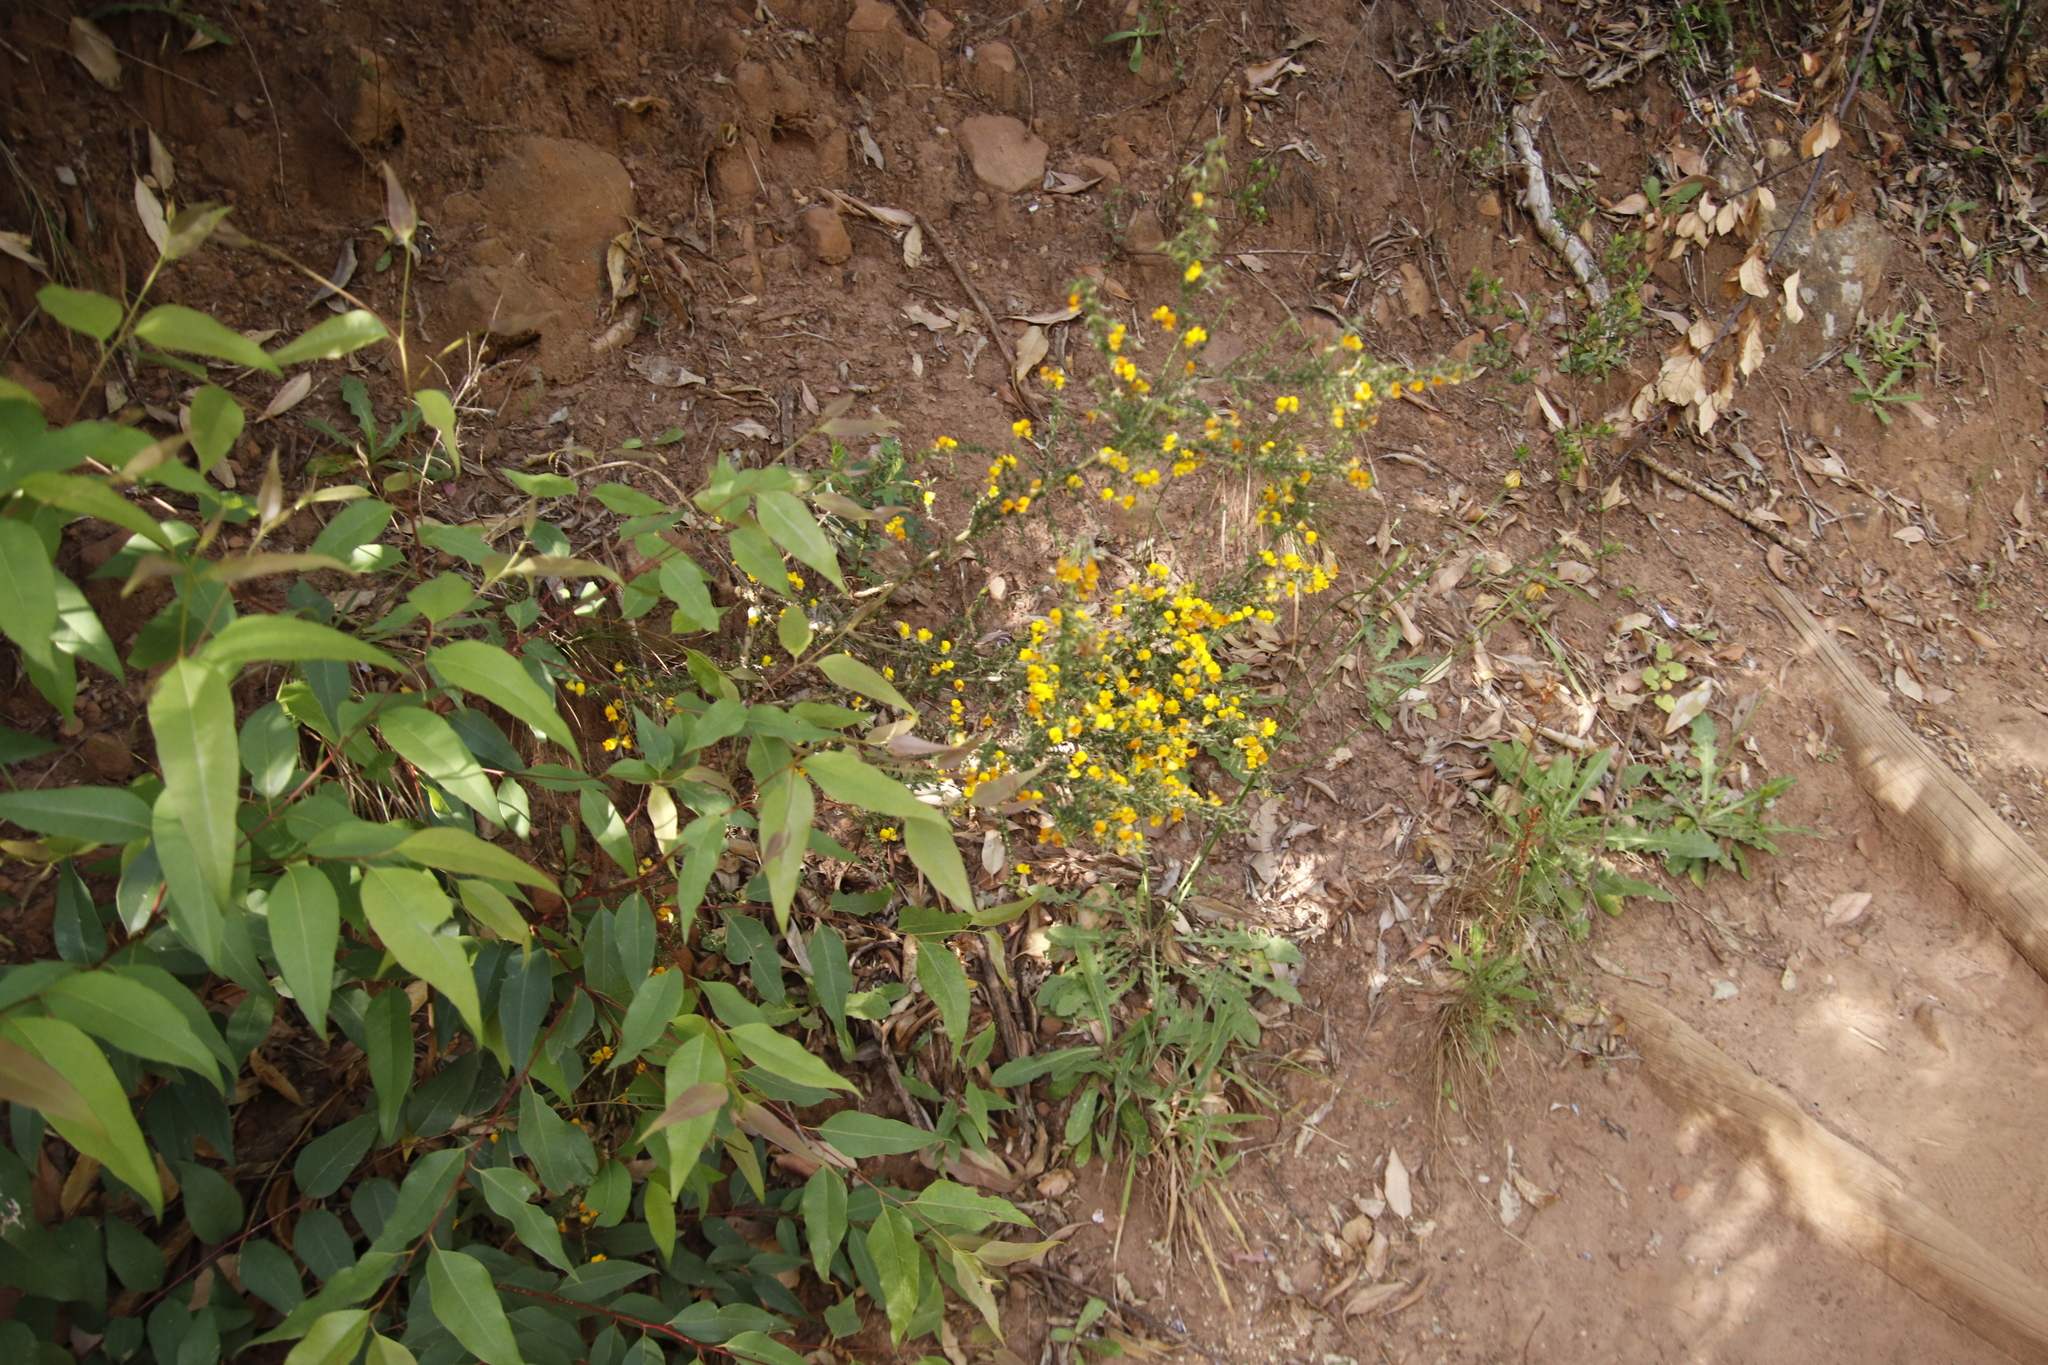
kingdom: Plantae
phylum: Tracheophyta
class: Magnoliopsida
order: Fabales
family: Fabaceae
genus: Aspalathus
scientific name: Aspalathus divaricata
